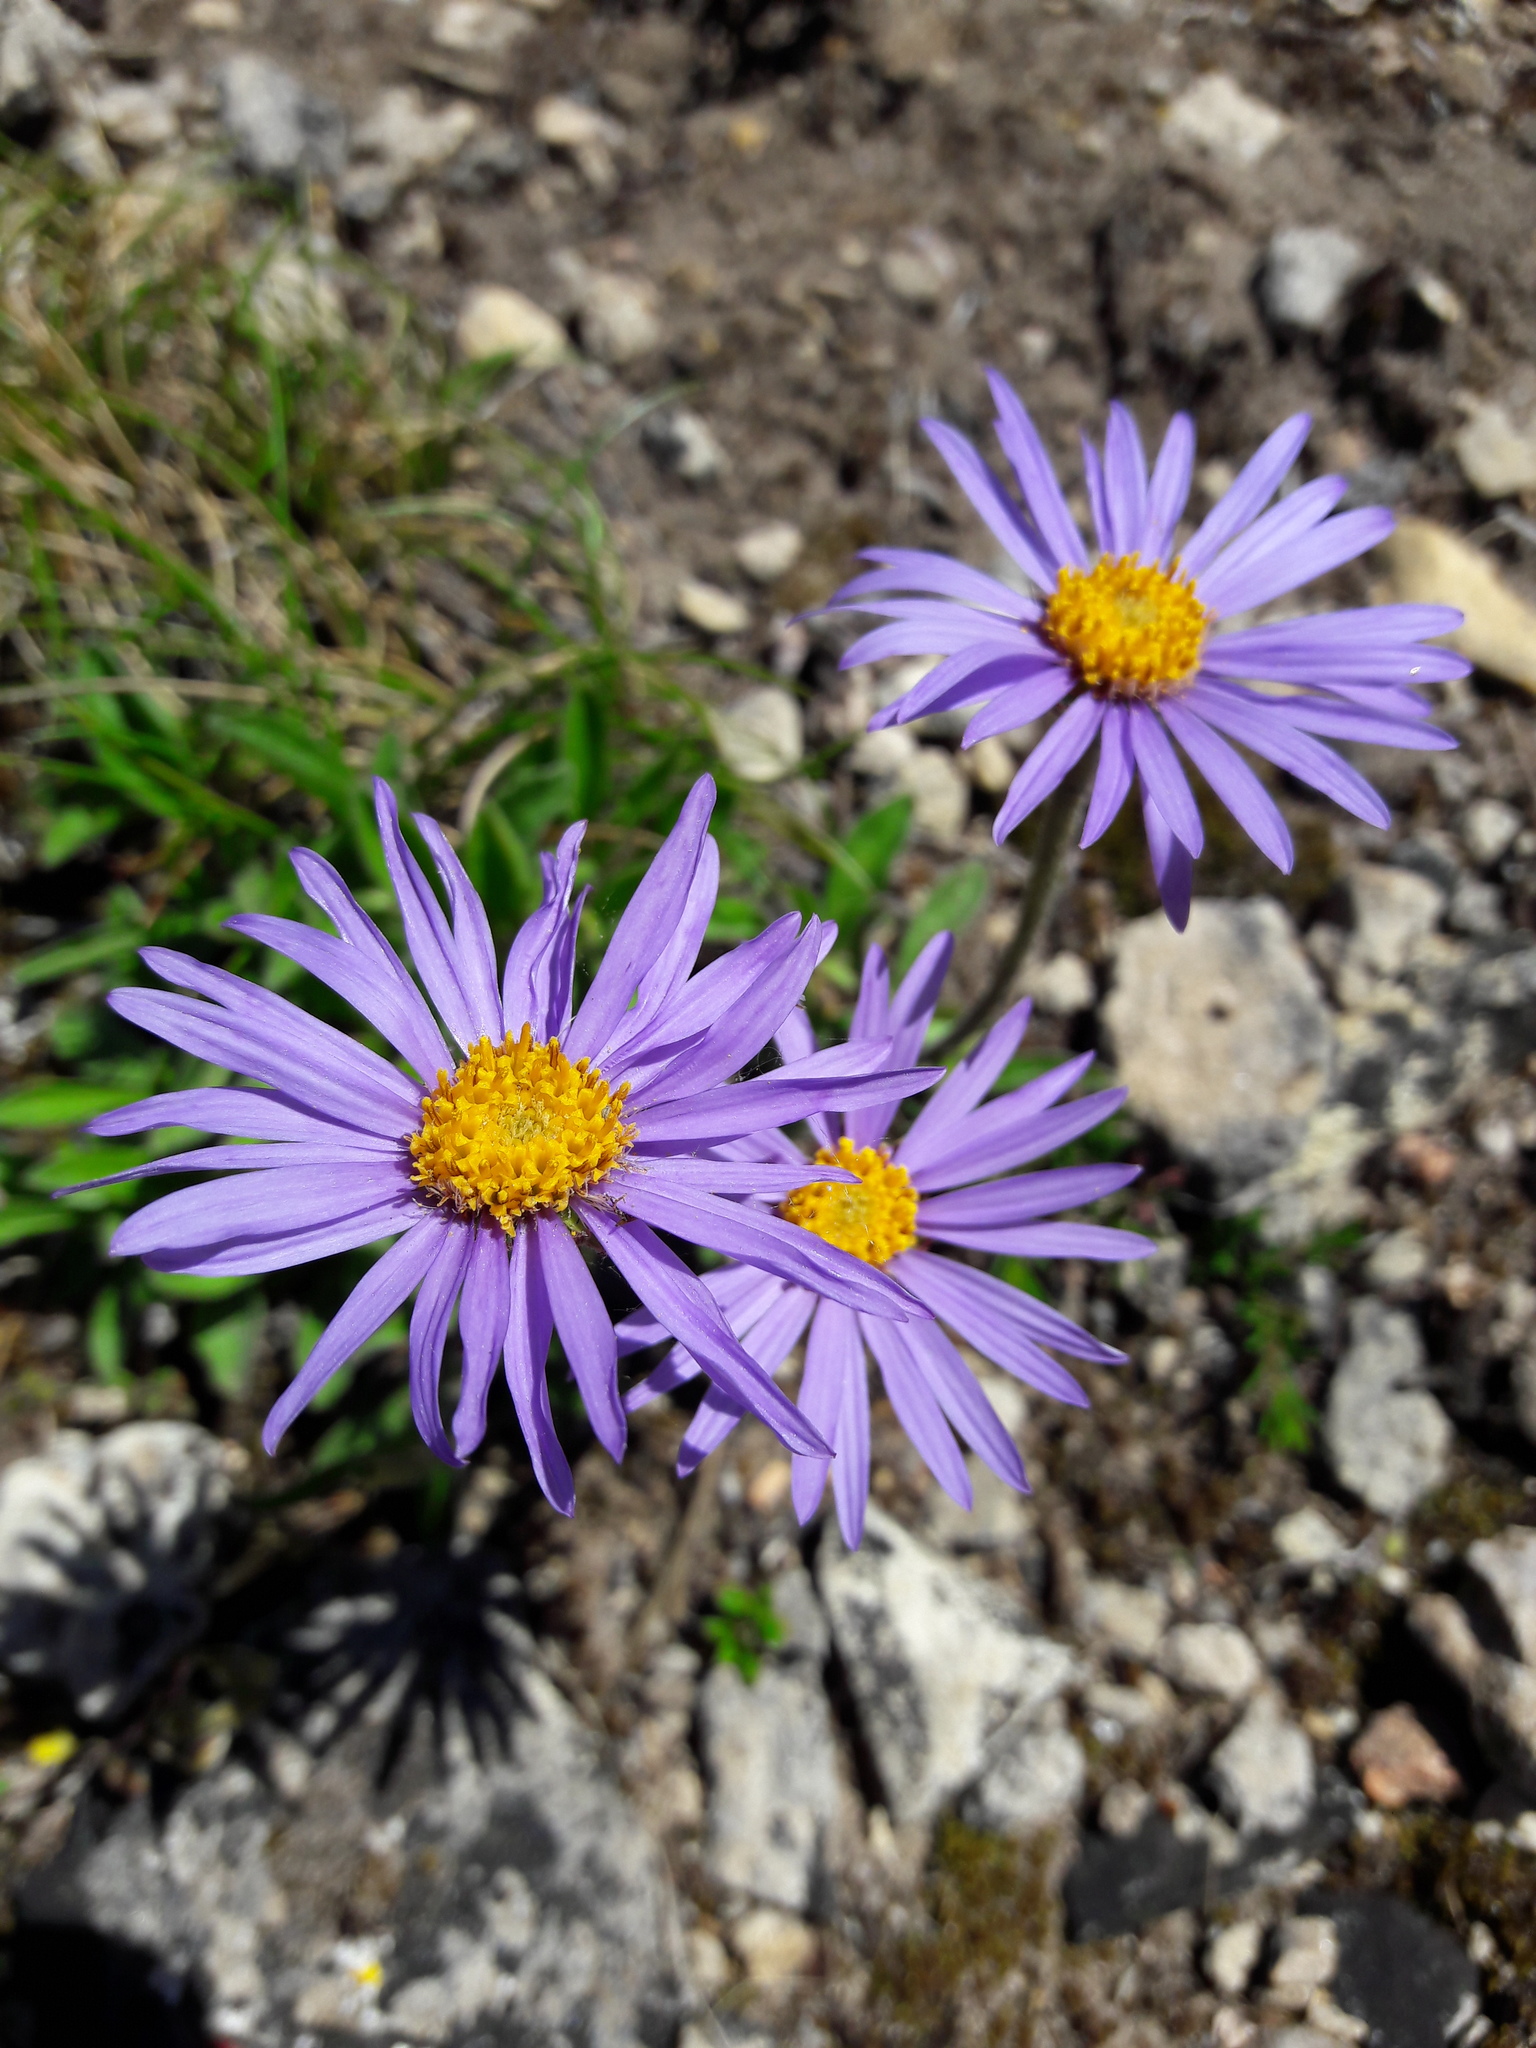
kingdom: Plantae
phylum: Tracheophyta
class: Magnoliopsida
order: Asterales
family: Asteraceae
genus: Aster
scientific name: Aster alpinus
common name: Alpine aster
